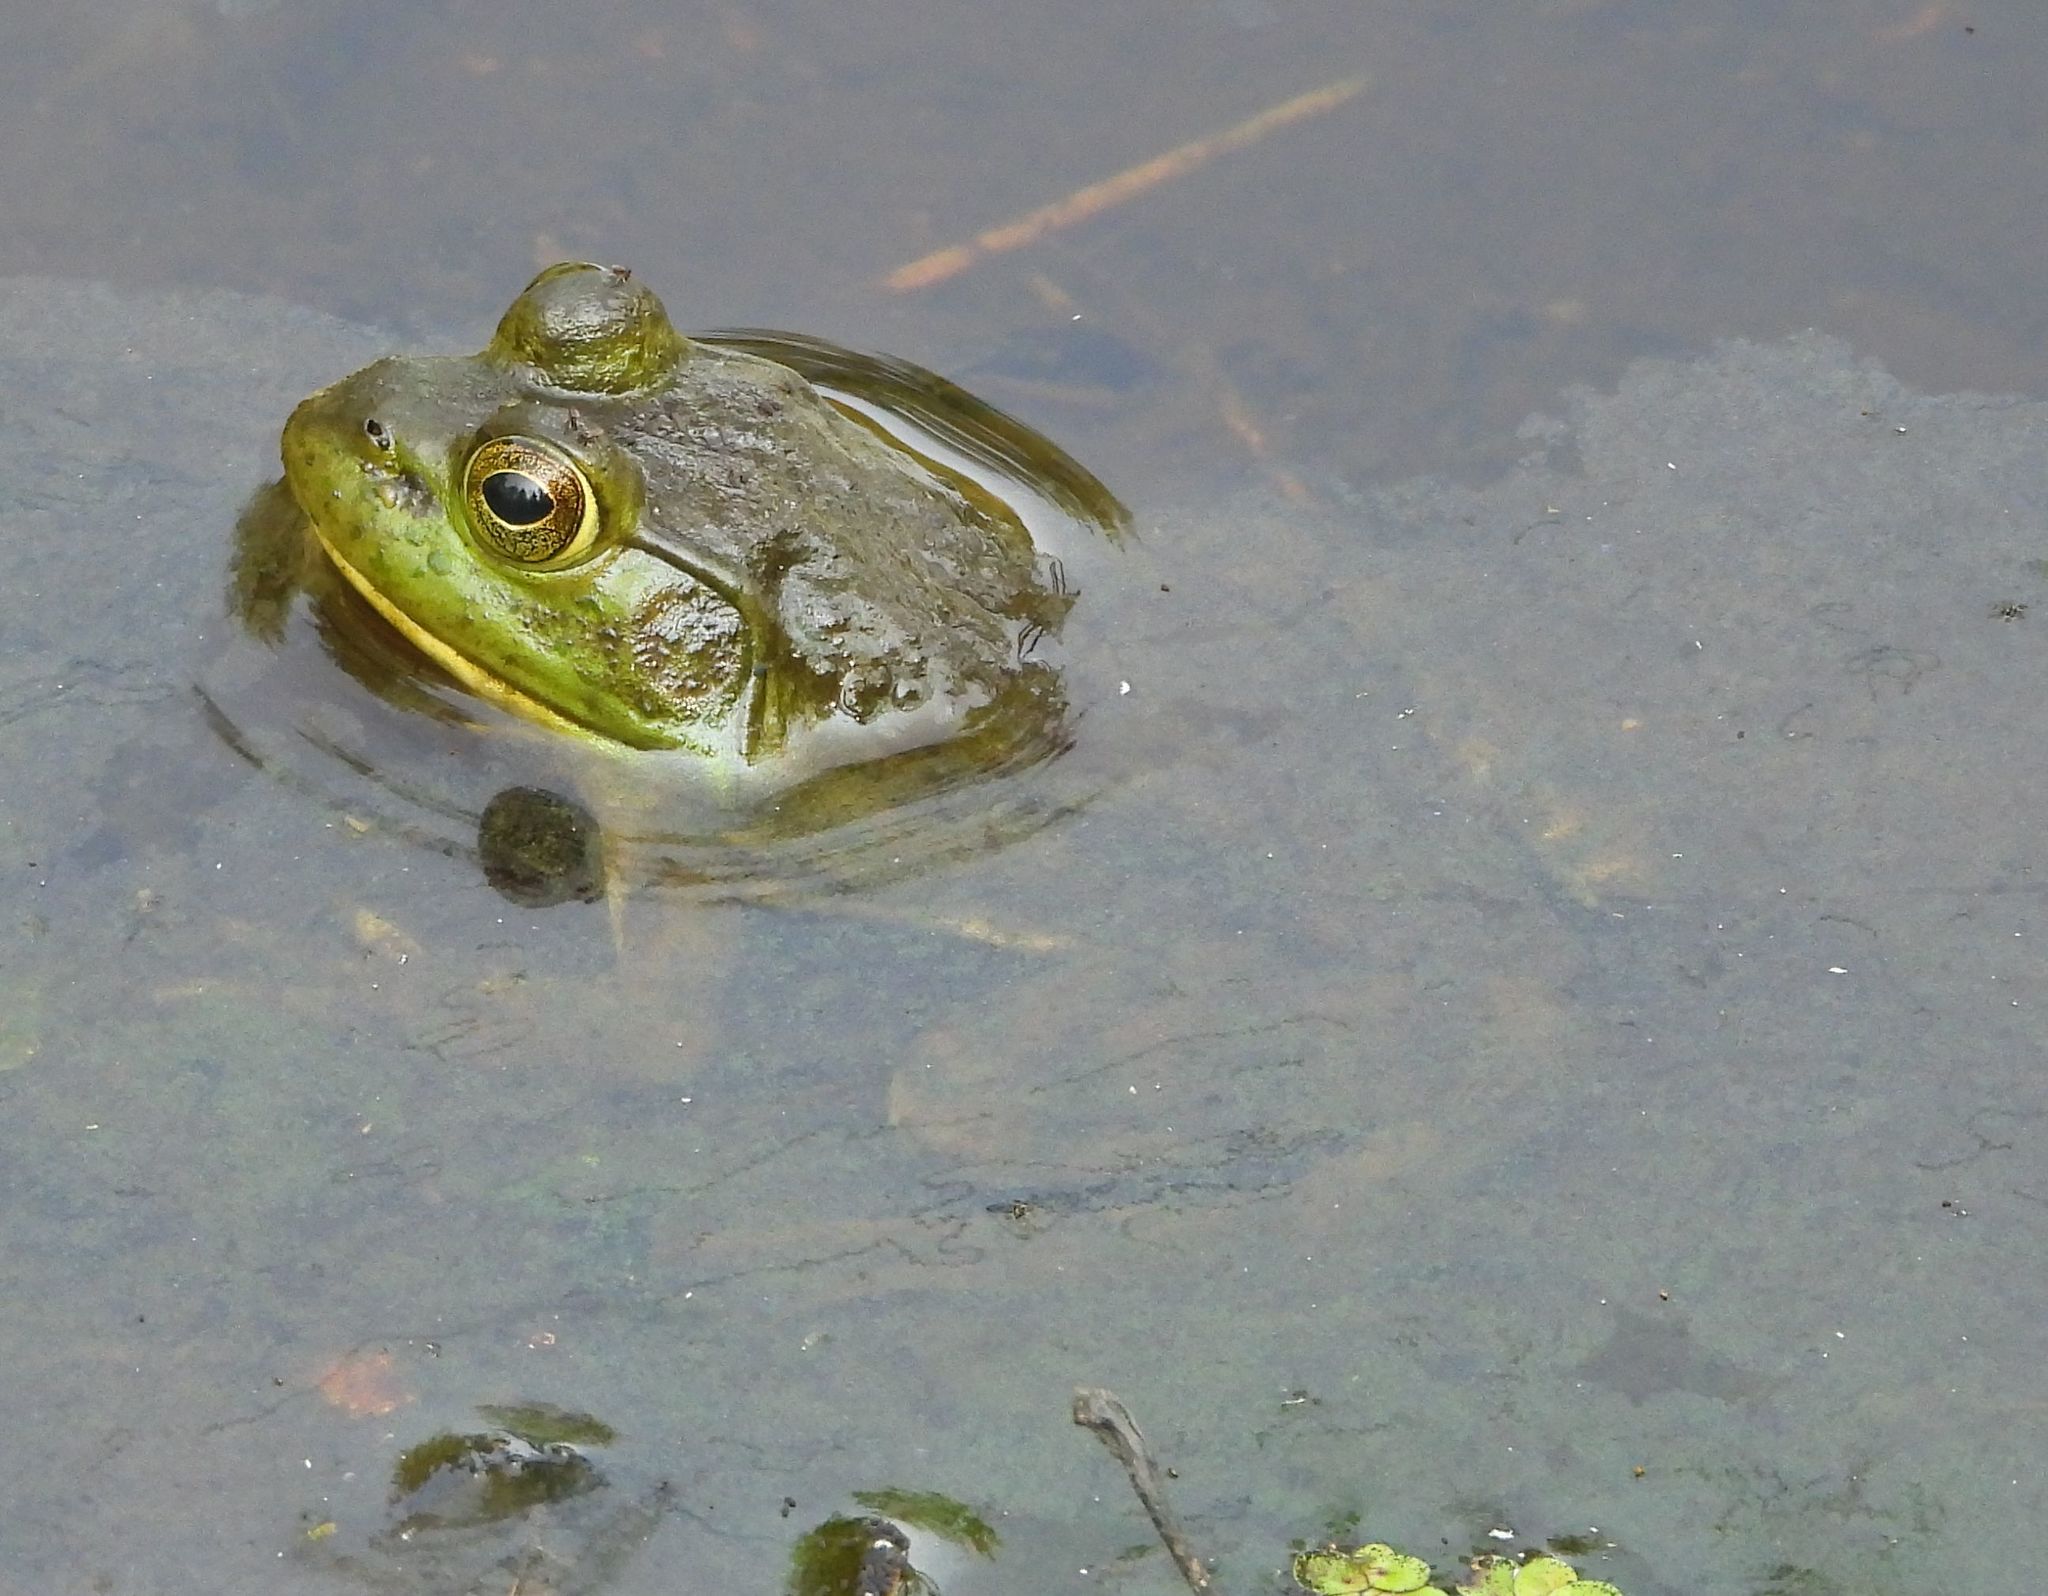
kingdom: Animalia
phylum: Chordata
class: Amphibia
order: Anura
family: Ranidae
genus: Lithobates
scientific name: Lithobates catesbeianus
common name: American bullfrog
